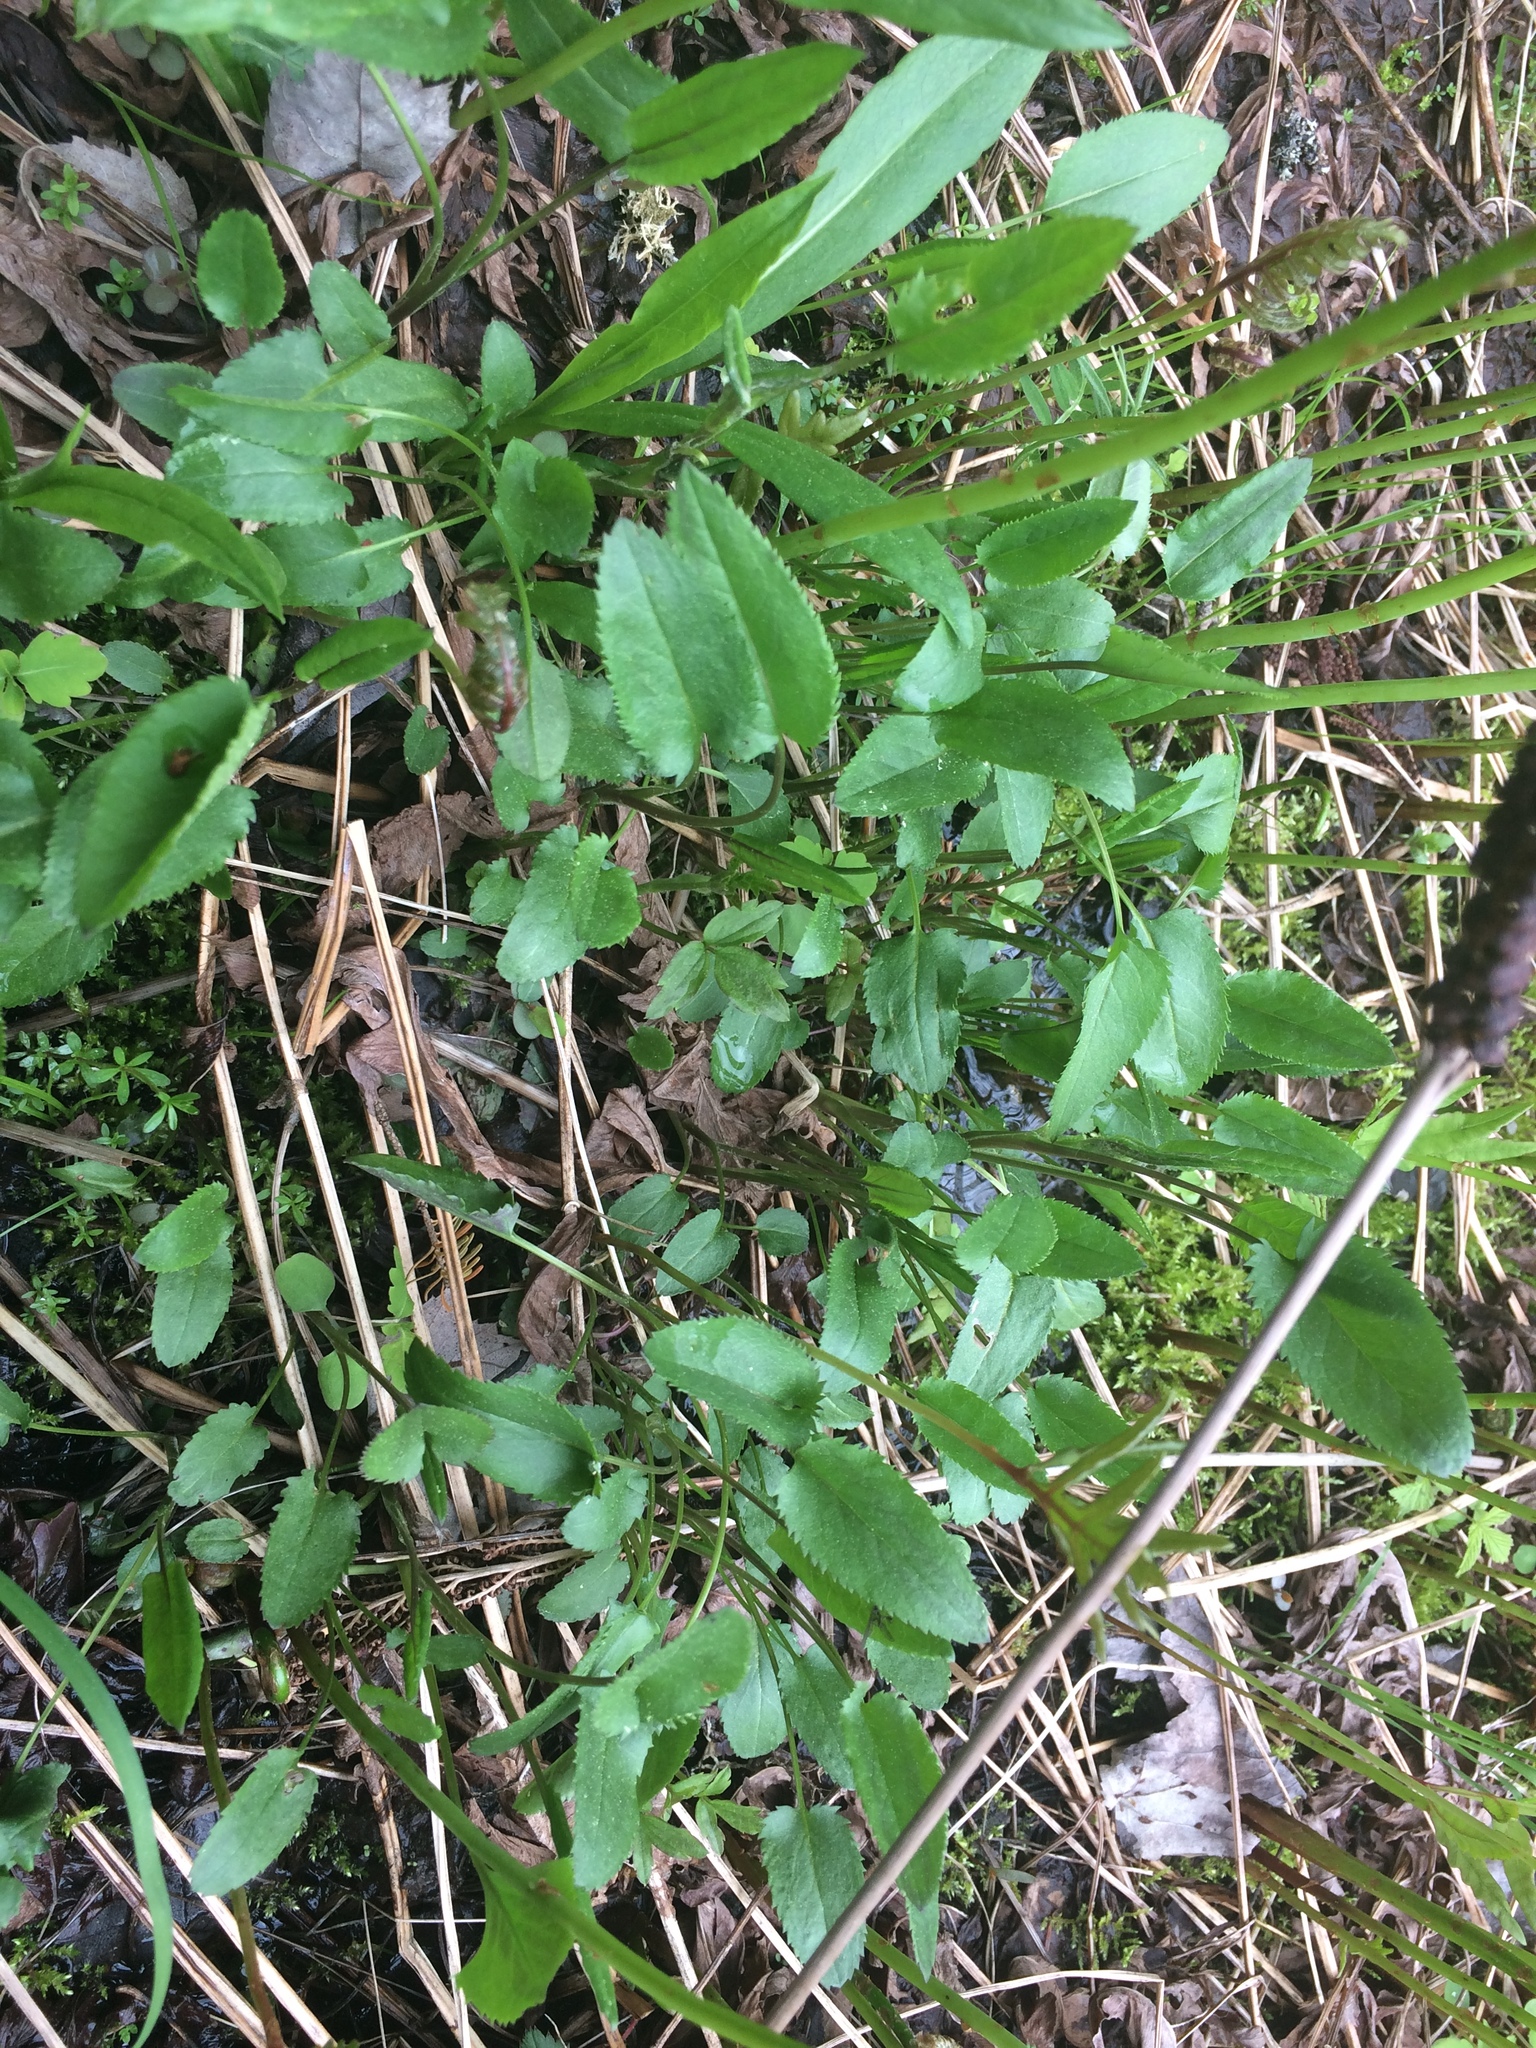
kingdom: Plantae
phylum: Tracheophyta
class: Magnoliopsida
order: Asterales
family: Asteraceae
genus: Packera
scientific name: Packera schweinitziana
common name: Schweinitz's ragwort
